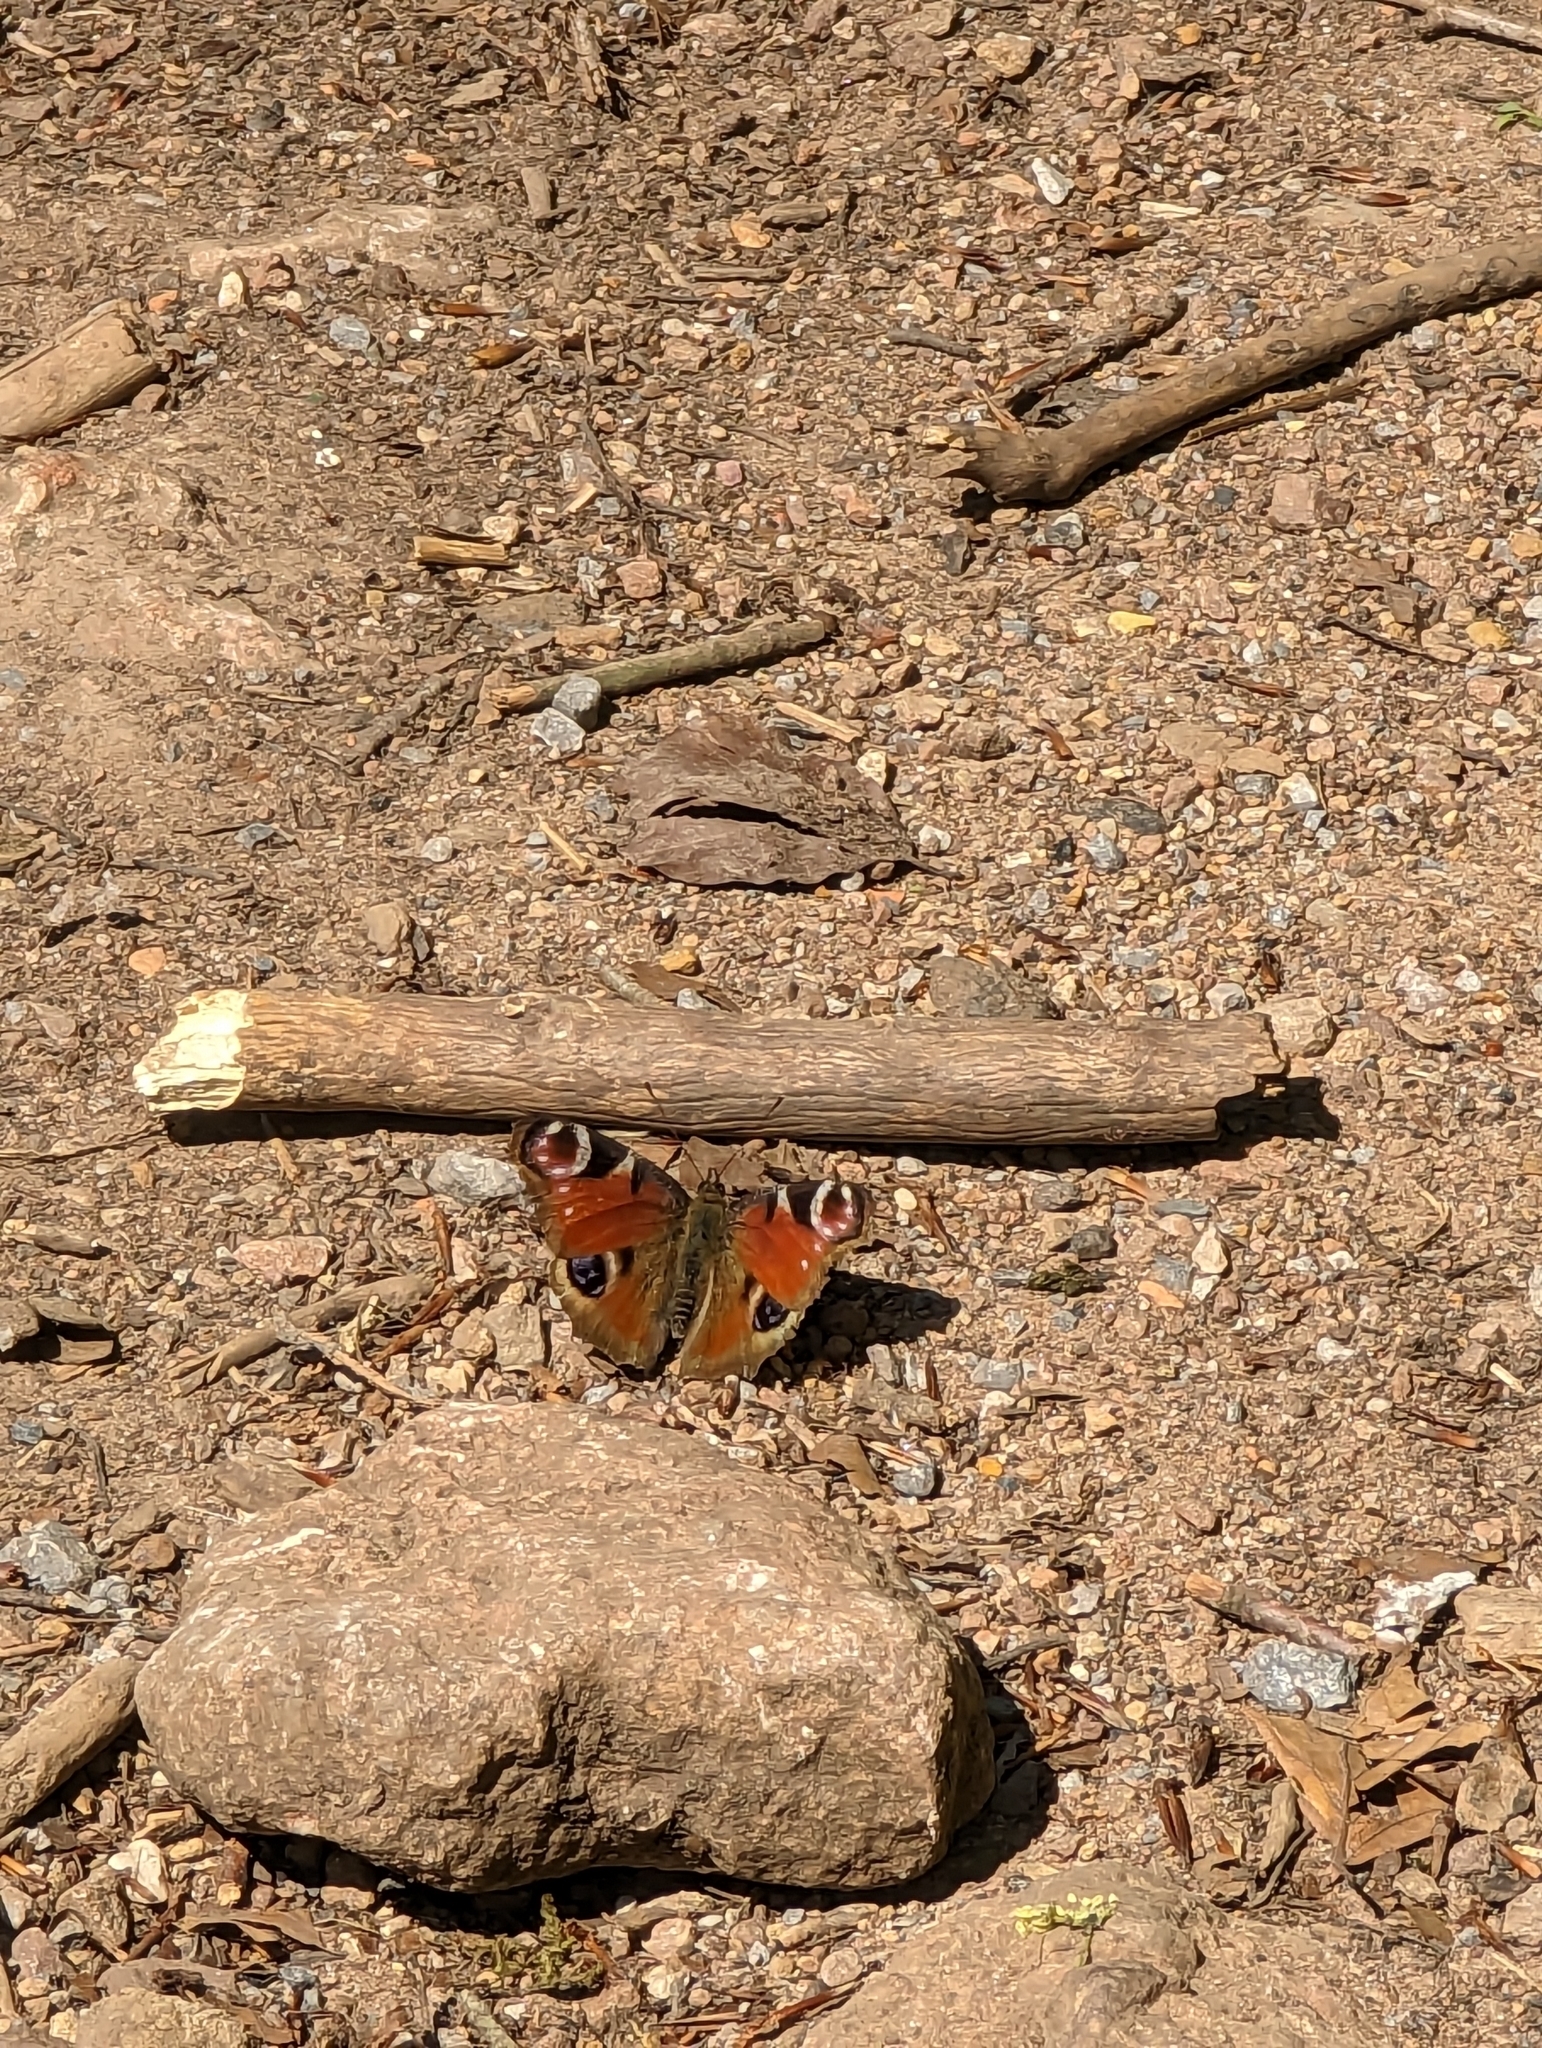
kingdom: Animalia
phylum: Arthropoda
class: Insecta
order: Lepidoptera
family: Nymphalidae
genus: Aglais
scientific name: Aglais io
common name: Peacock
